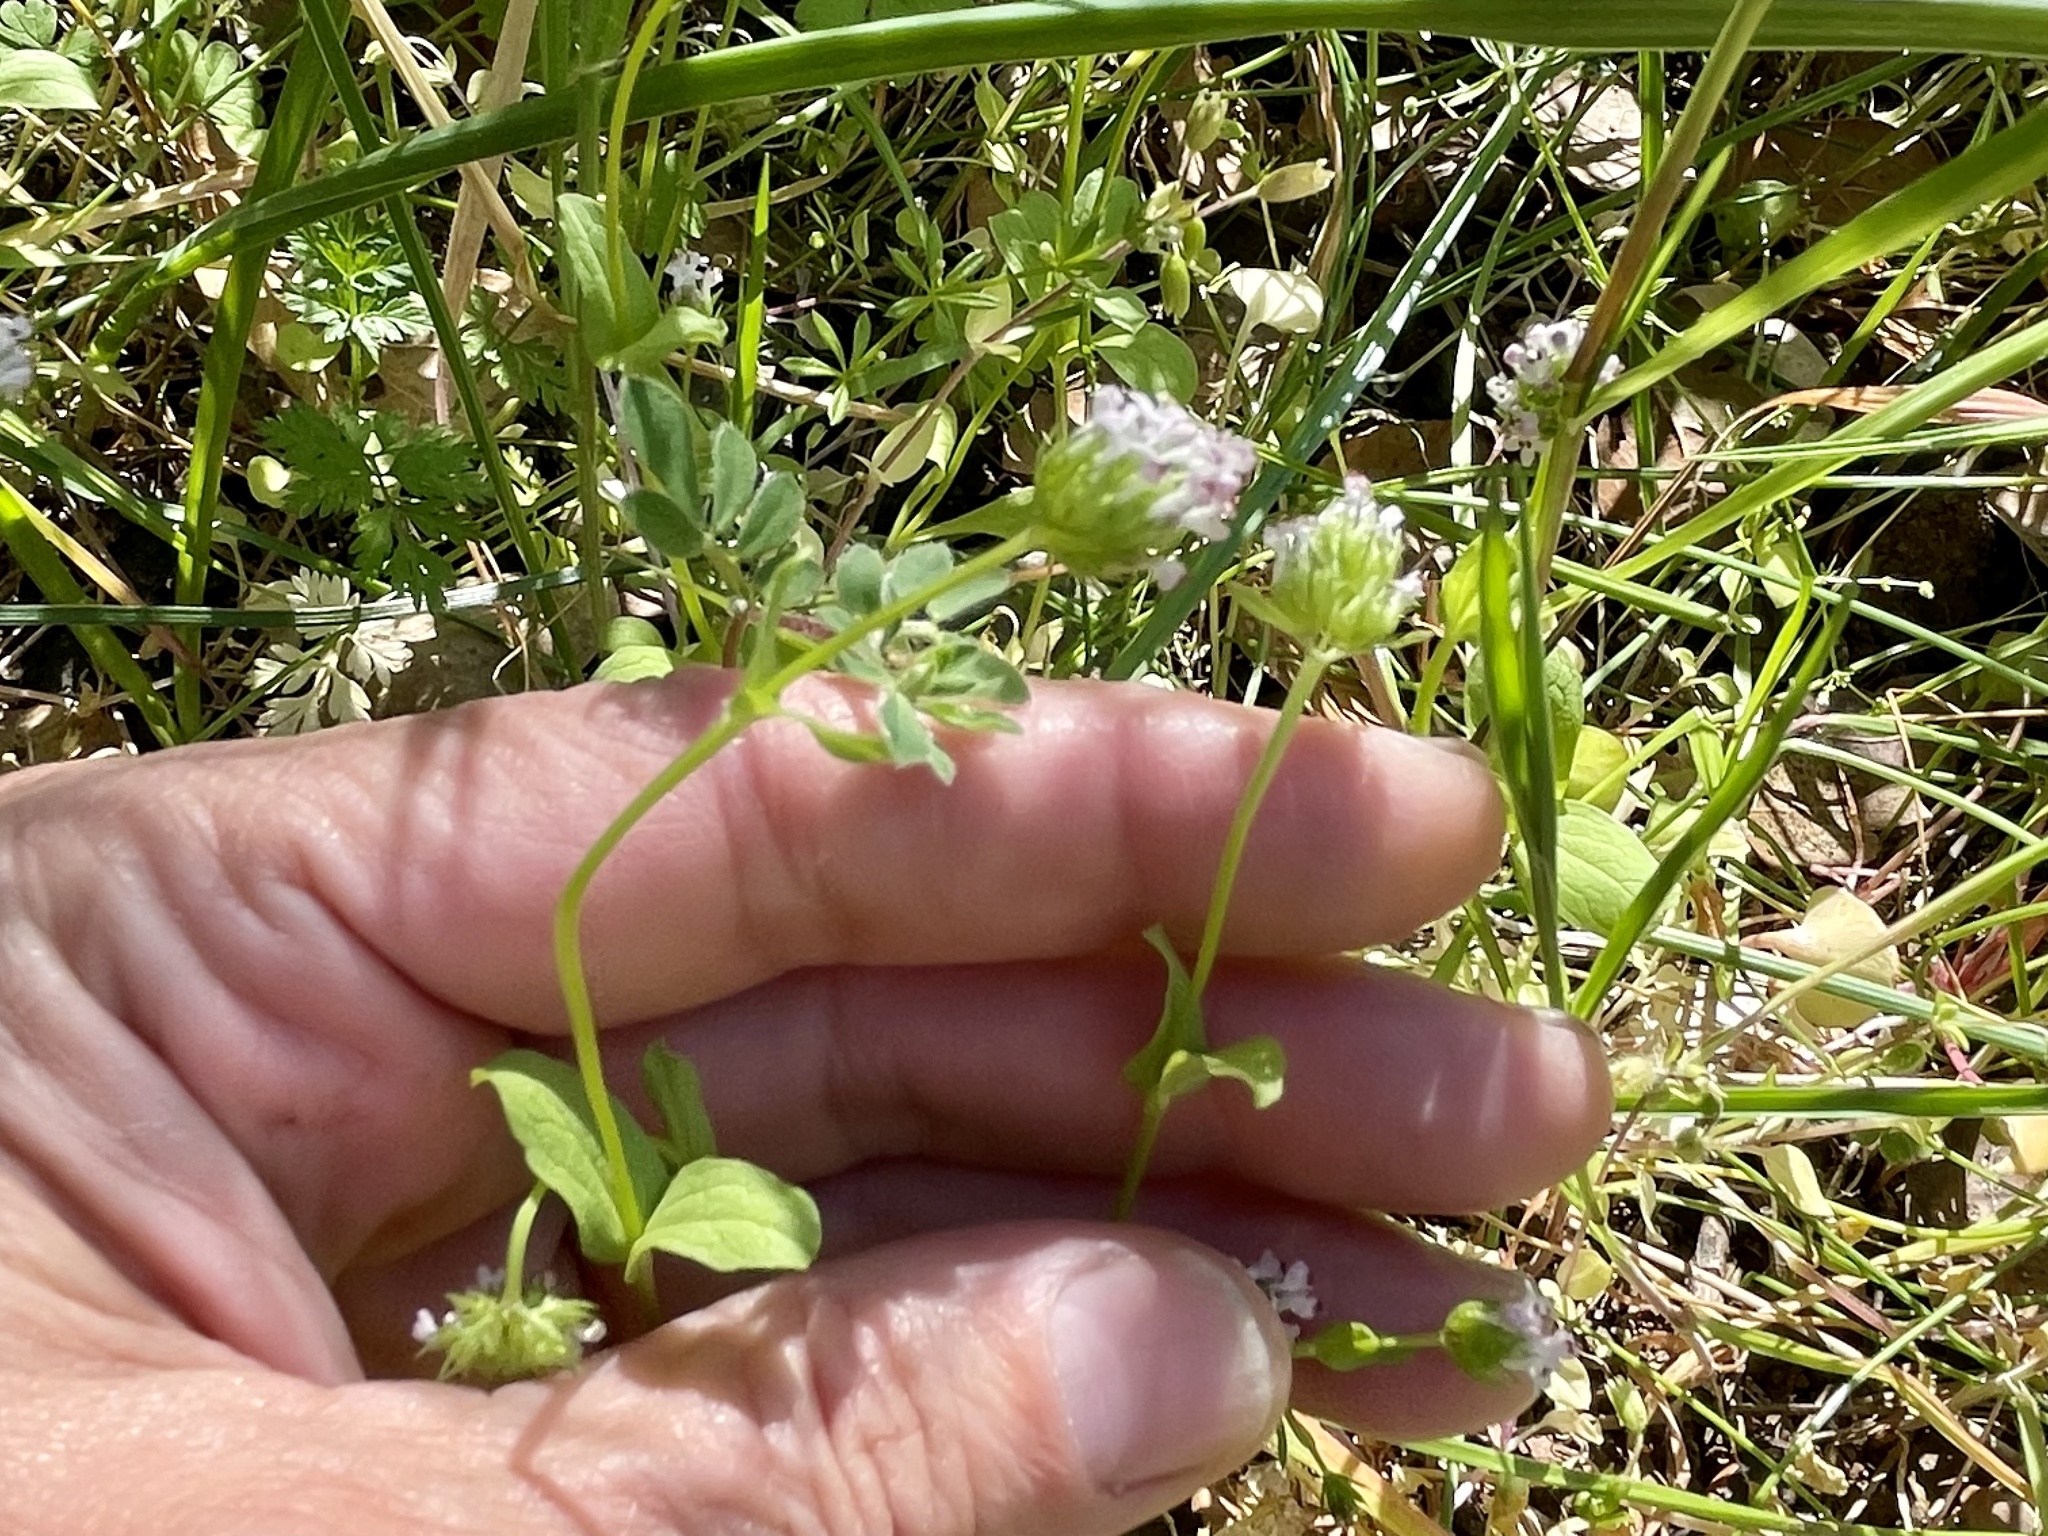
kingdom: Plantae
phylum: Tracheophyta
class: Magnoliopsida
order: Dipsacales
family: Caprifoliaceae
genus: Plectritis
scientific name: Plectritis macroptera
